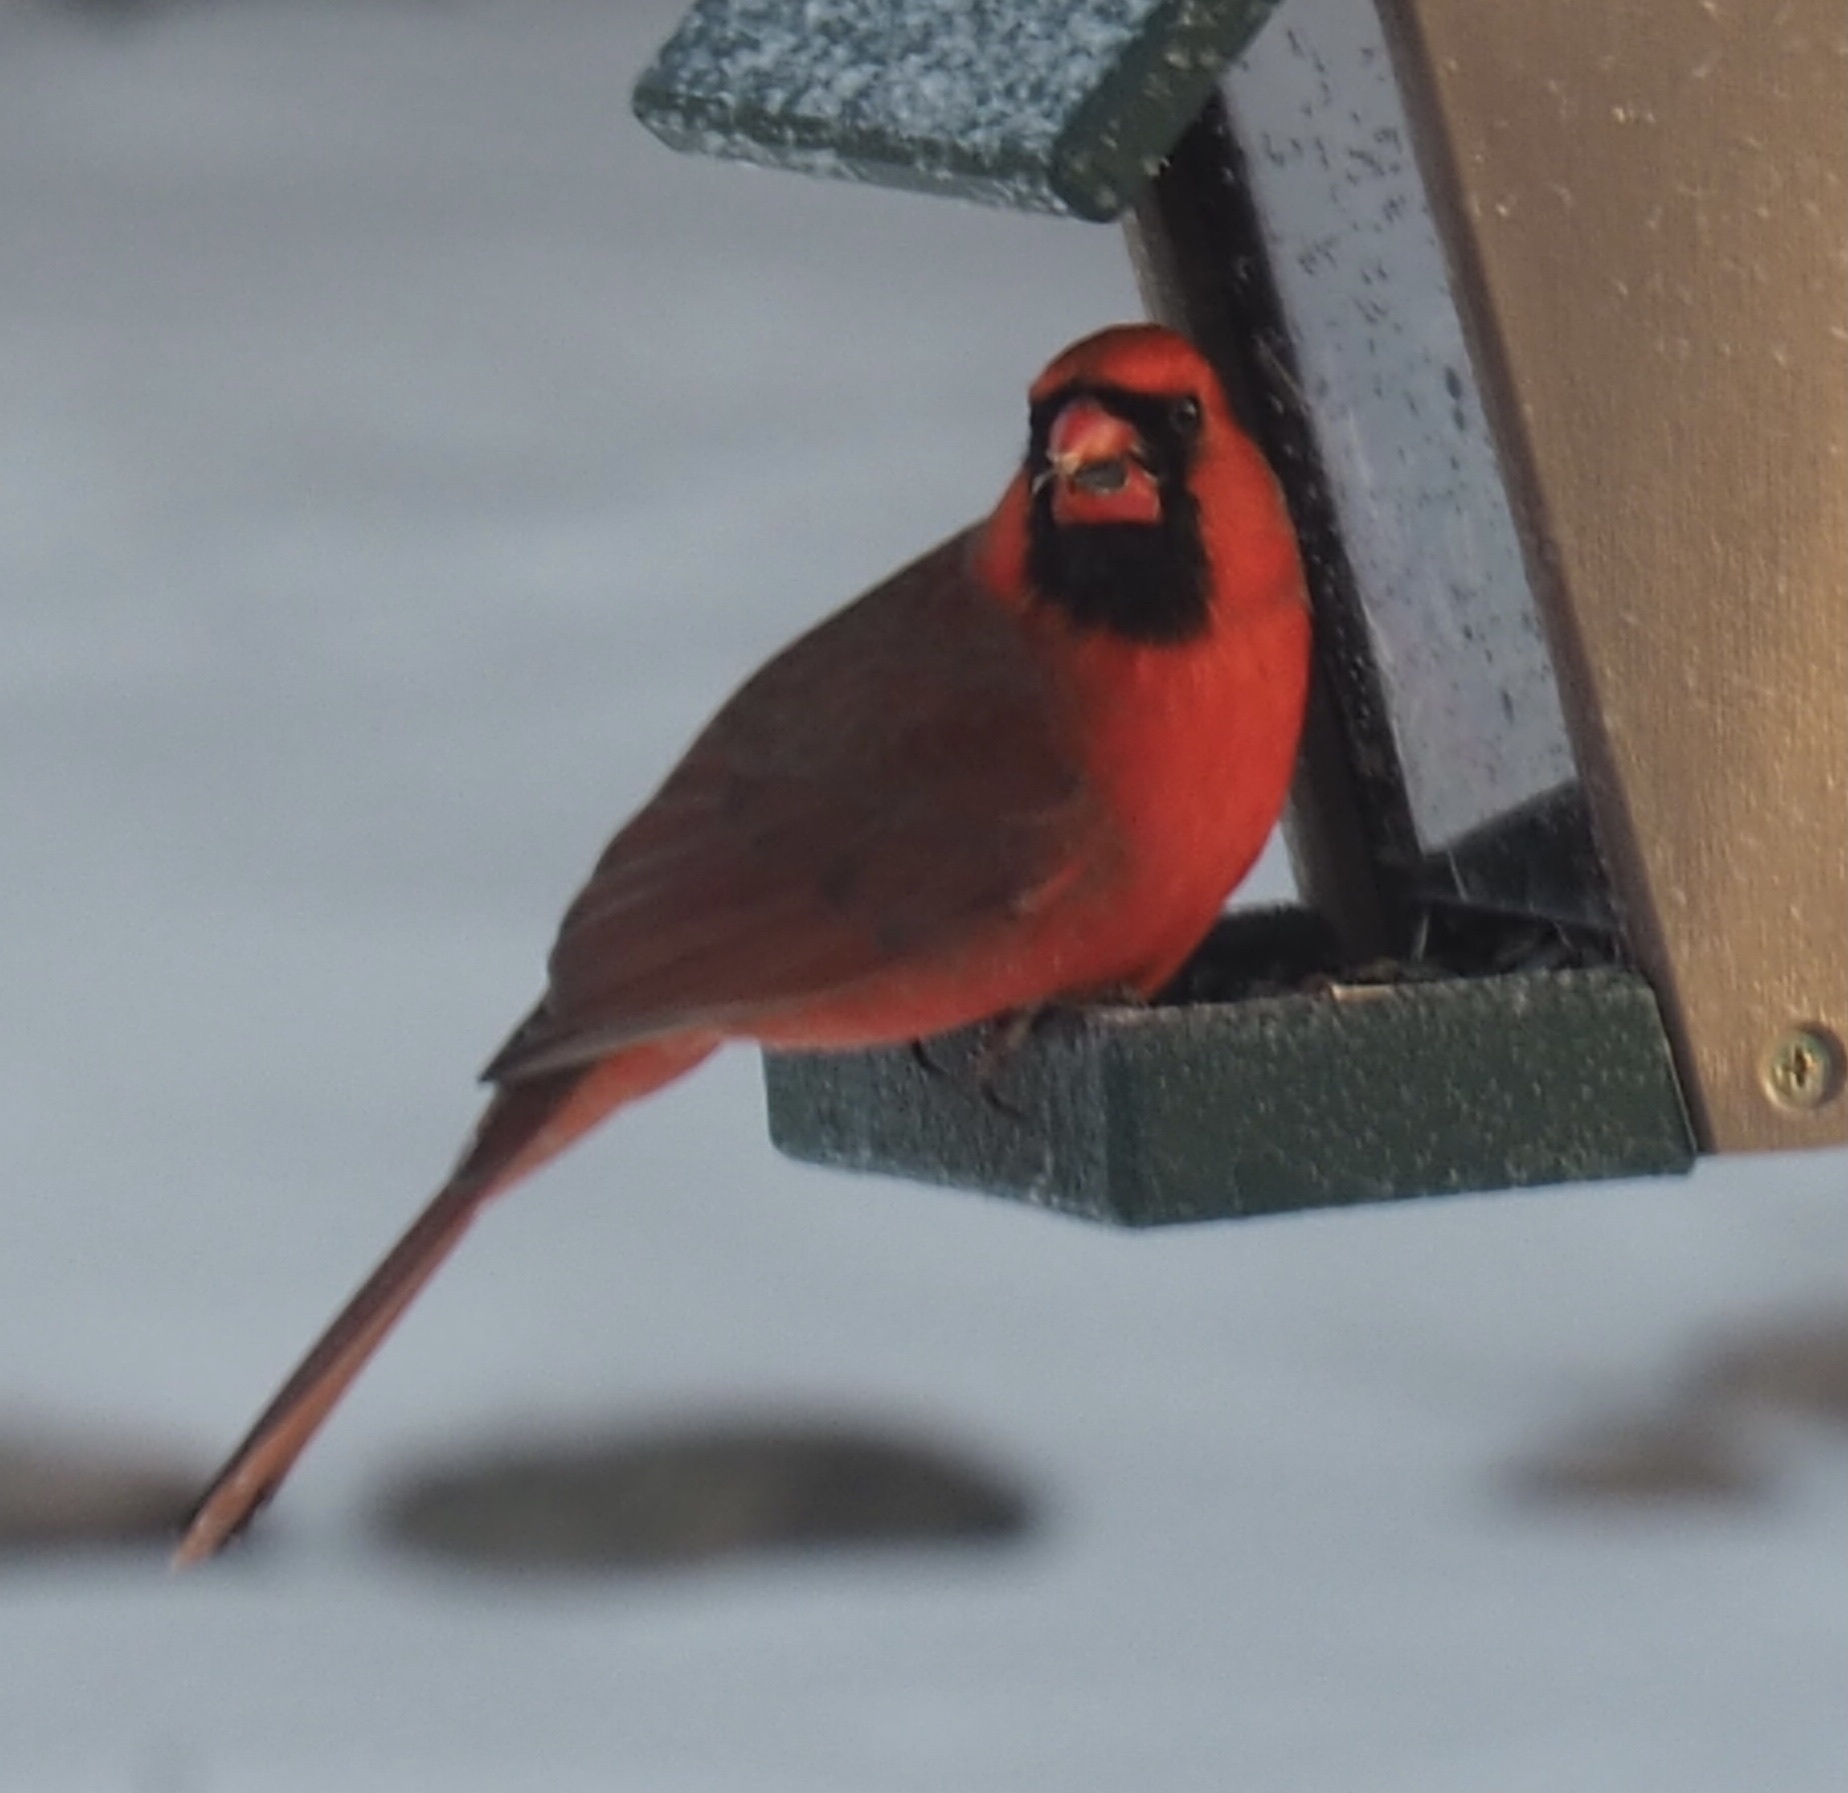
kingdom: Animalia
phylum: Chordata
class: Aves
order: Passeriformes
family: Cardinalidae
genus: Cardinalis
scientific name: Cardinalis cardinalis
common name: Northern cardinal
